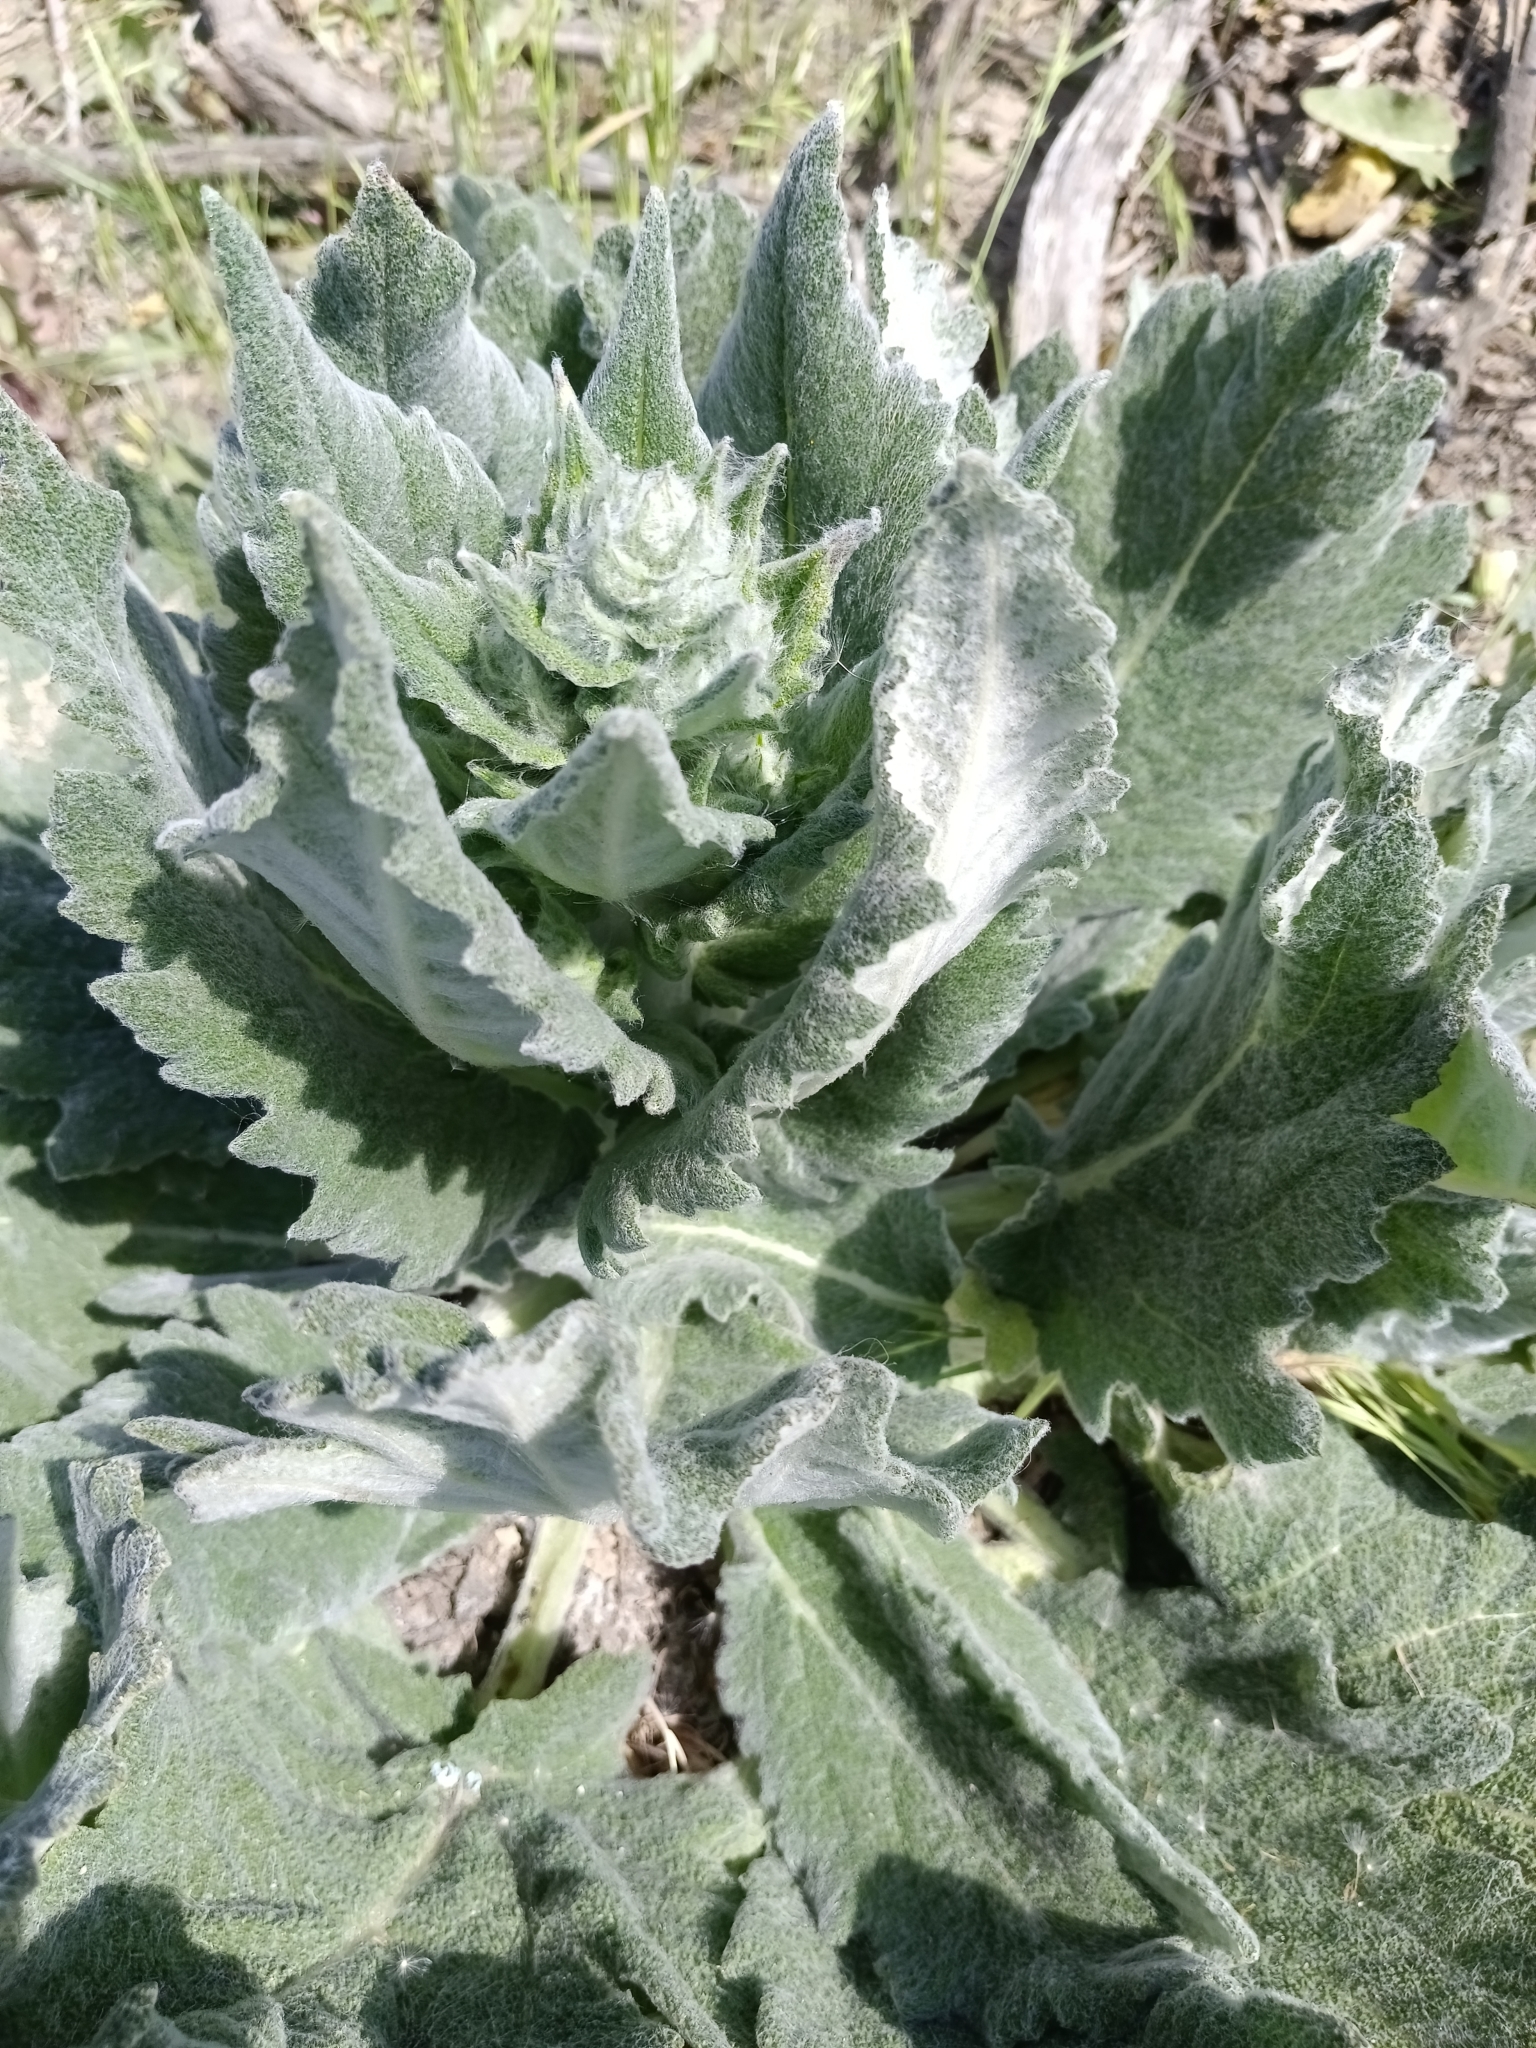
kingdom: Plantae
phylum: Tracheophyta
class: Magnoliopsida
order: Lamiales
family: Lamiaceae
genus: Salvia
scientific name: Salvia aethiopis
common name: Mediterranean sage
